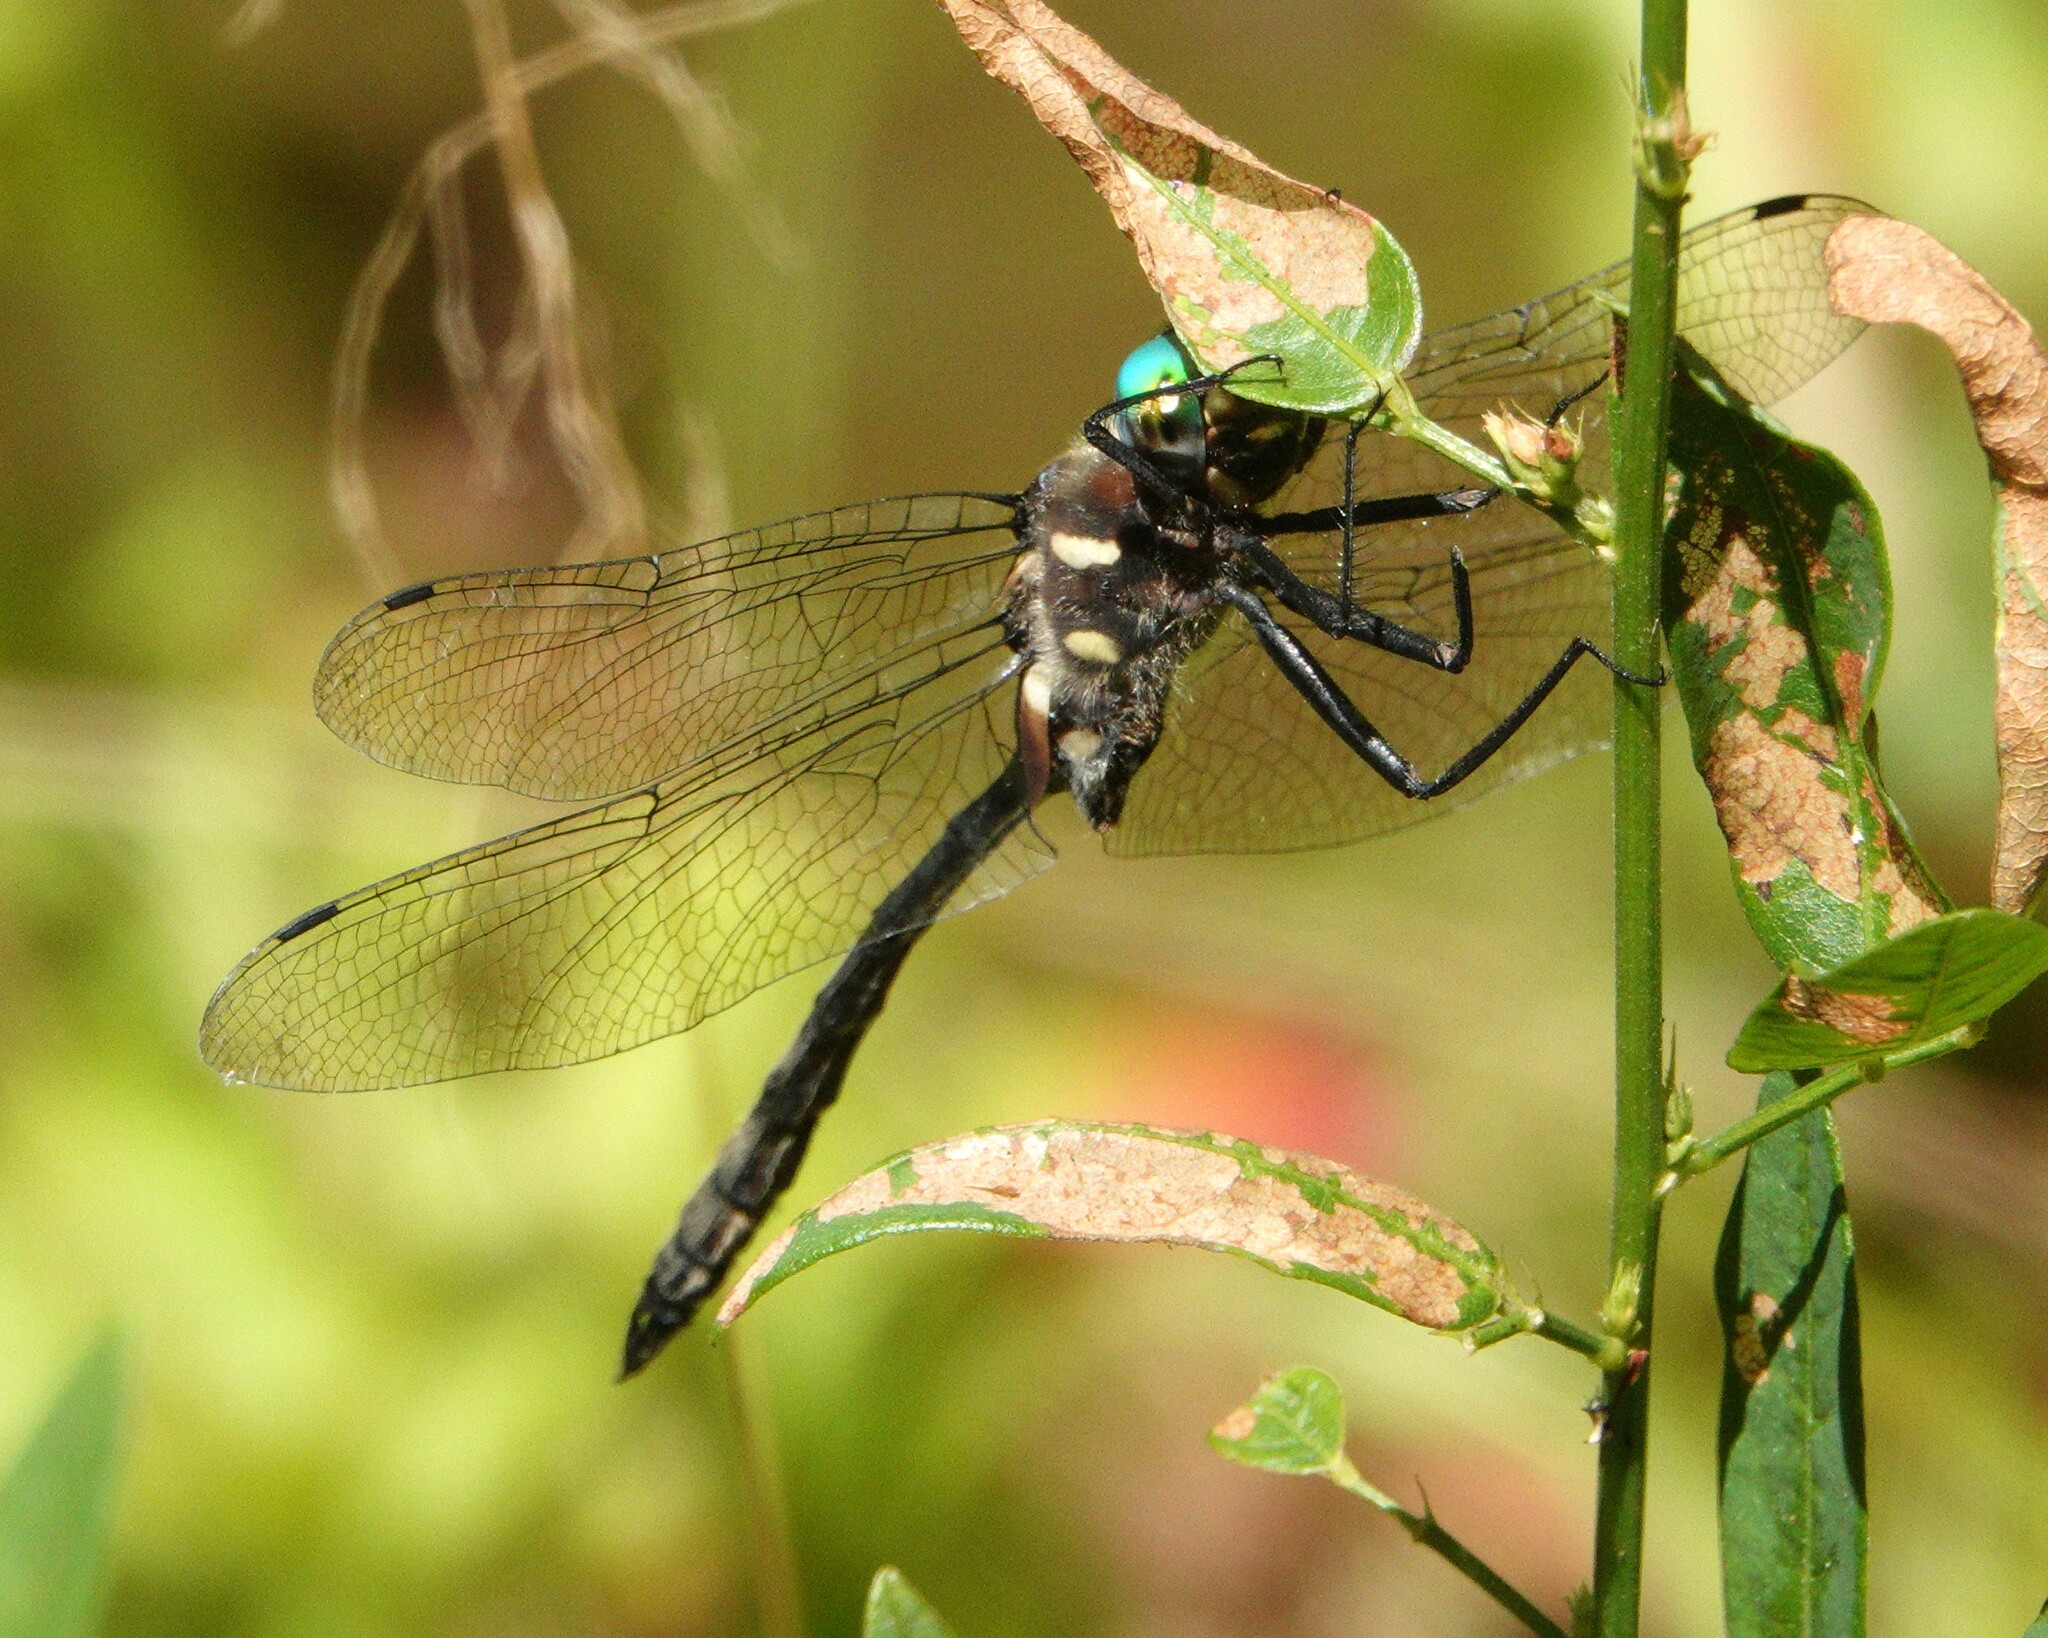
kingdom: Animalia
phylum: Arthropoda
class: Insecta
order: Odonata
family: Corduliidae
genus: Somatochlora
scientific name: Somatochlora elongata
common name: Ski-tipped emerald
